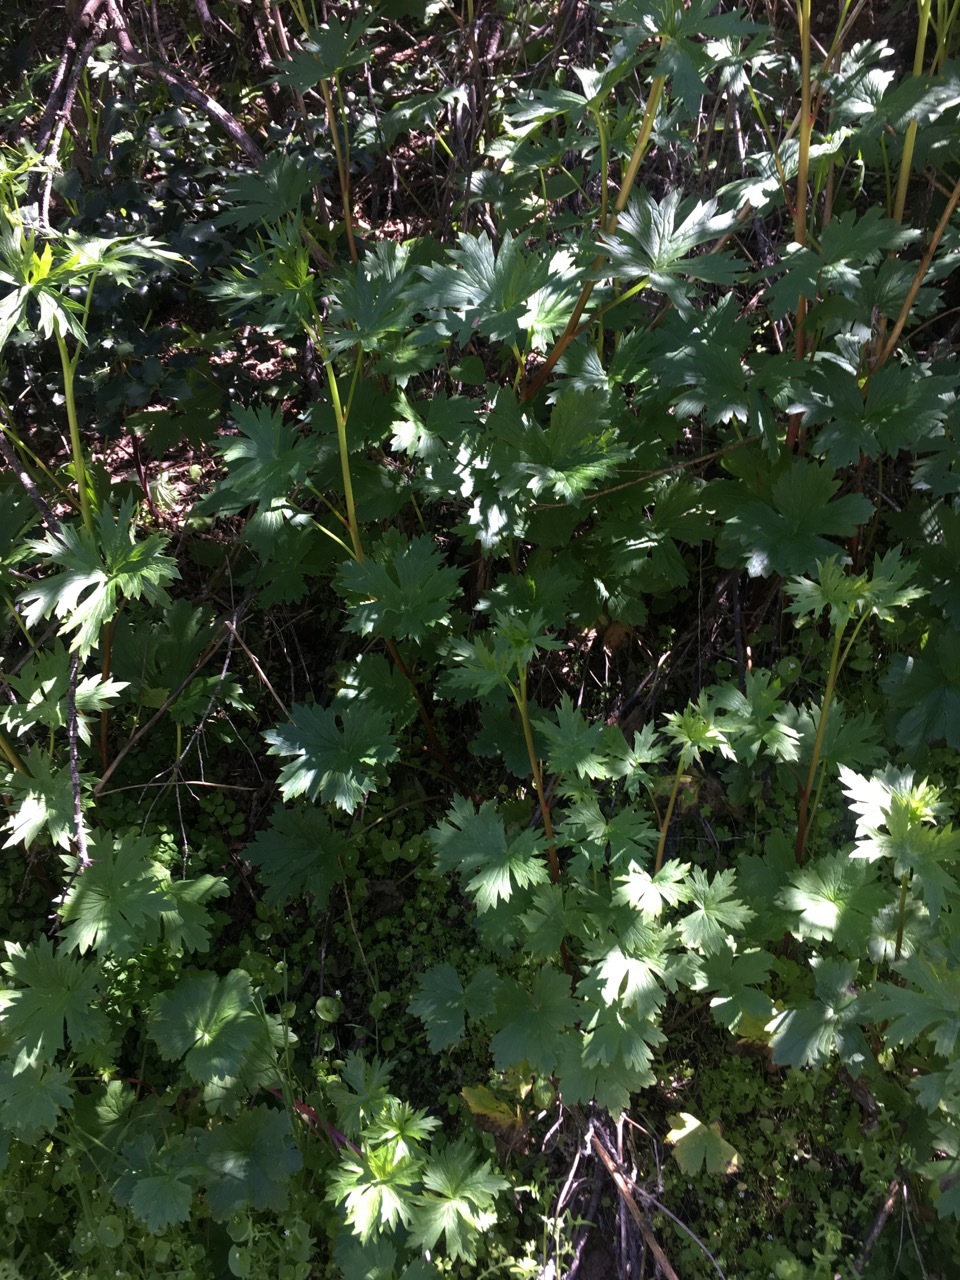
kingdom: Plantae
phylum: Tracheophyta
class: Magnoliopsida
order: Ranunculales
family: Ranunculaceae
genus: Delphinium
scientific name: Delphinium californicum
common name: California larkspur
